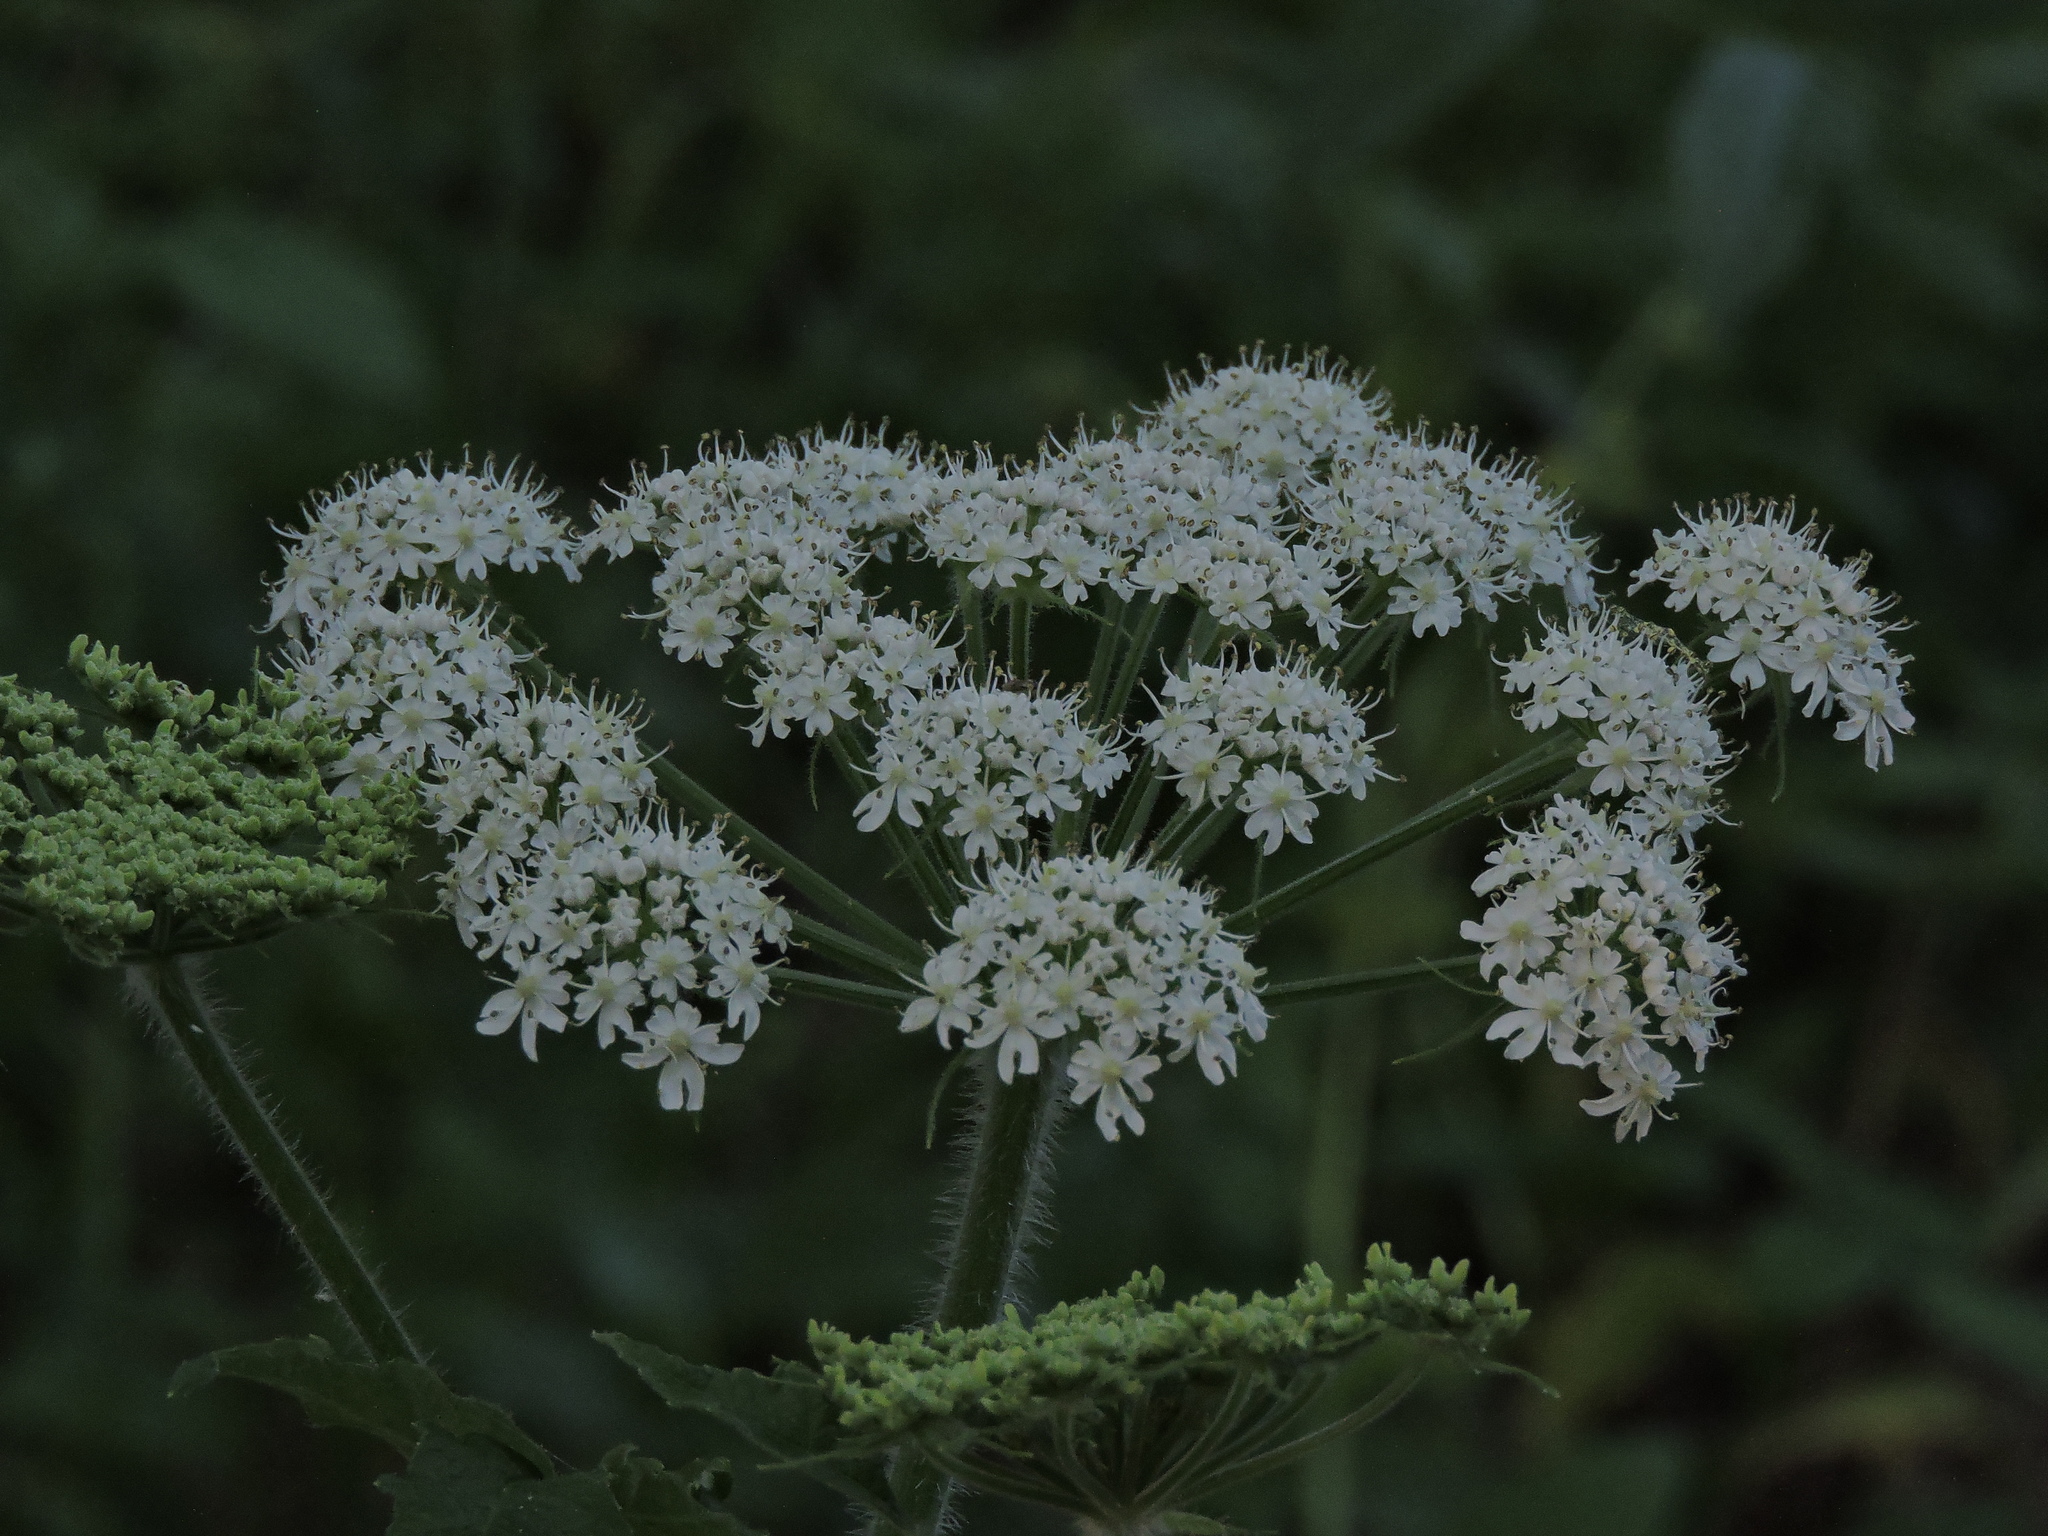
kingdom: Plantae
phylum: Tracheophyta
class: Magnoliopsida
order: Apiales
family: Apiaceae
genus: Heracleum
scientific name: Heracleum maximum
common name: American cow parsnip
